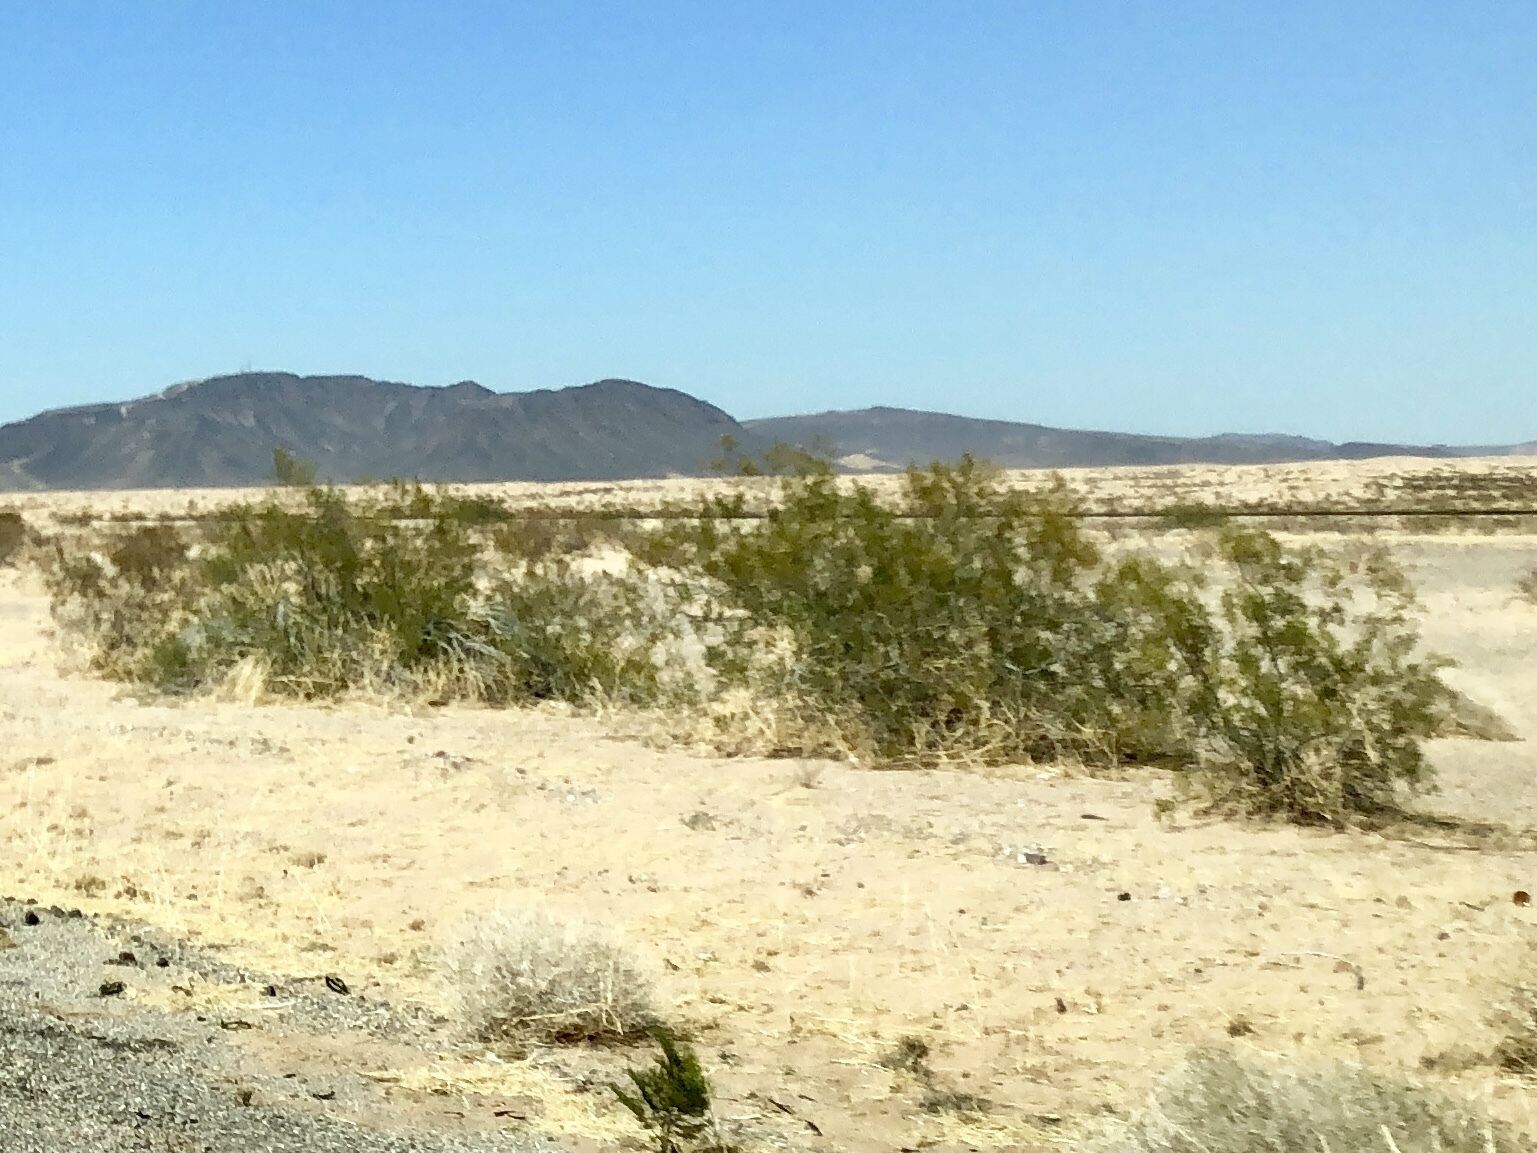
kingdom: Plantae
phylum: Tracheophyta
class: Magnoliopsida
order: Zygophyllales
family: Zygophyllaceae
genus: Larrea
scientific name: Larrea tridentata
